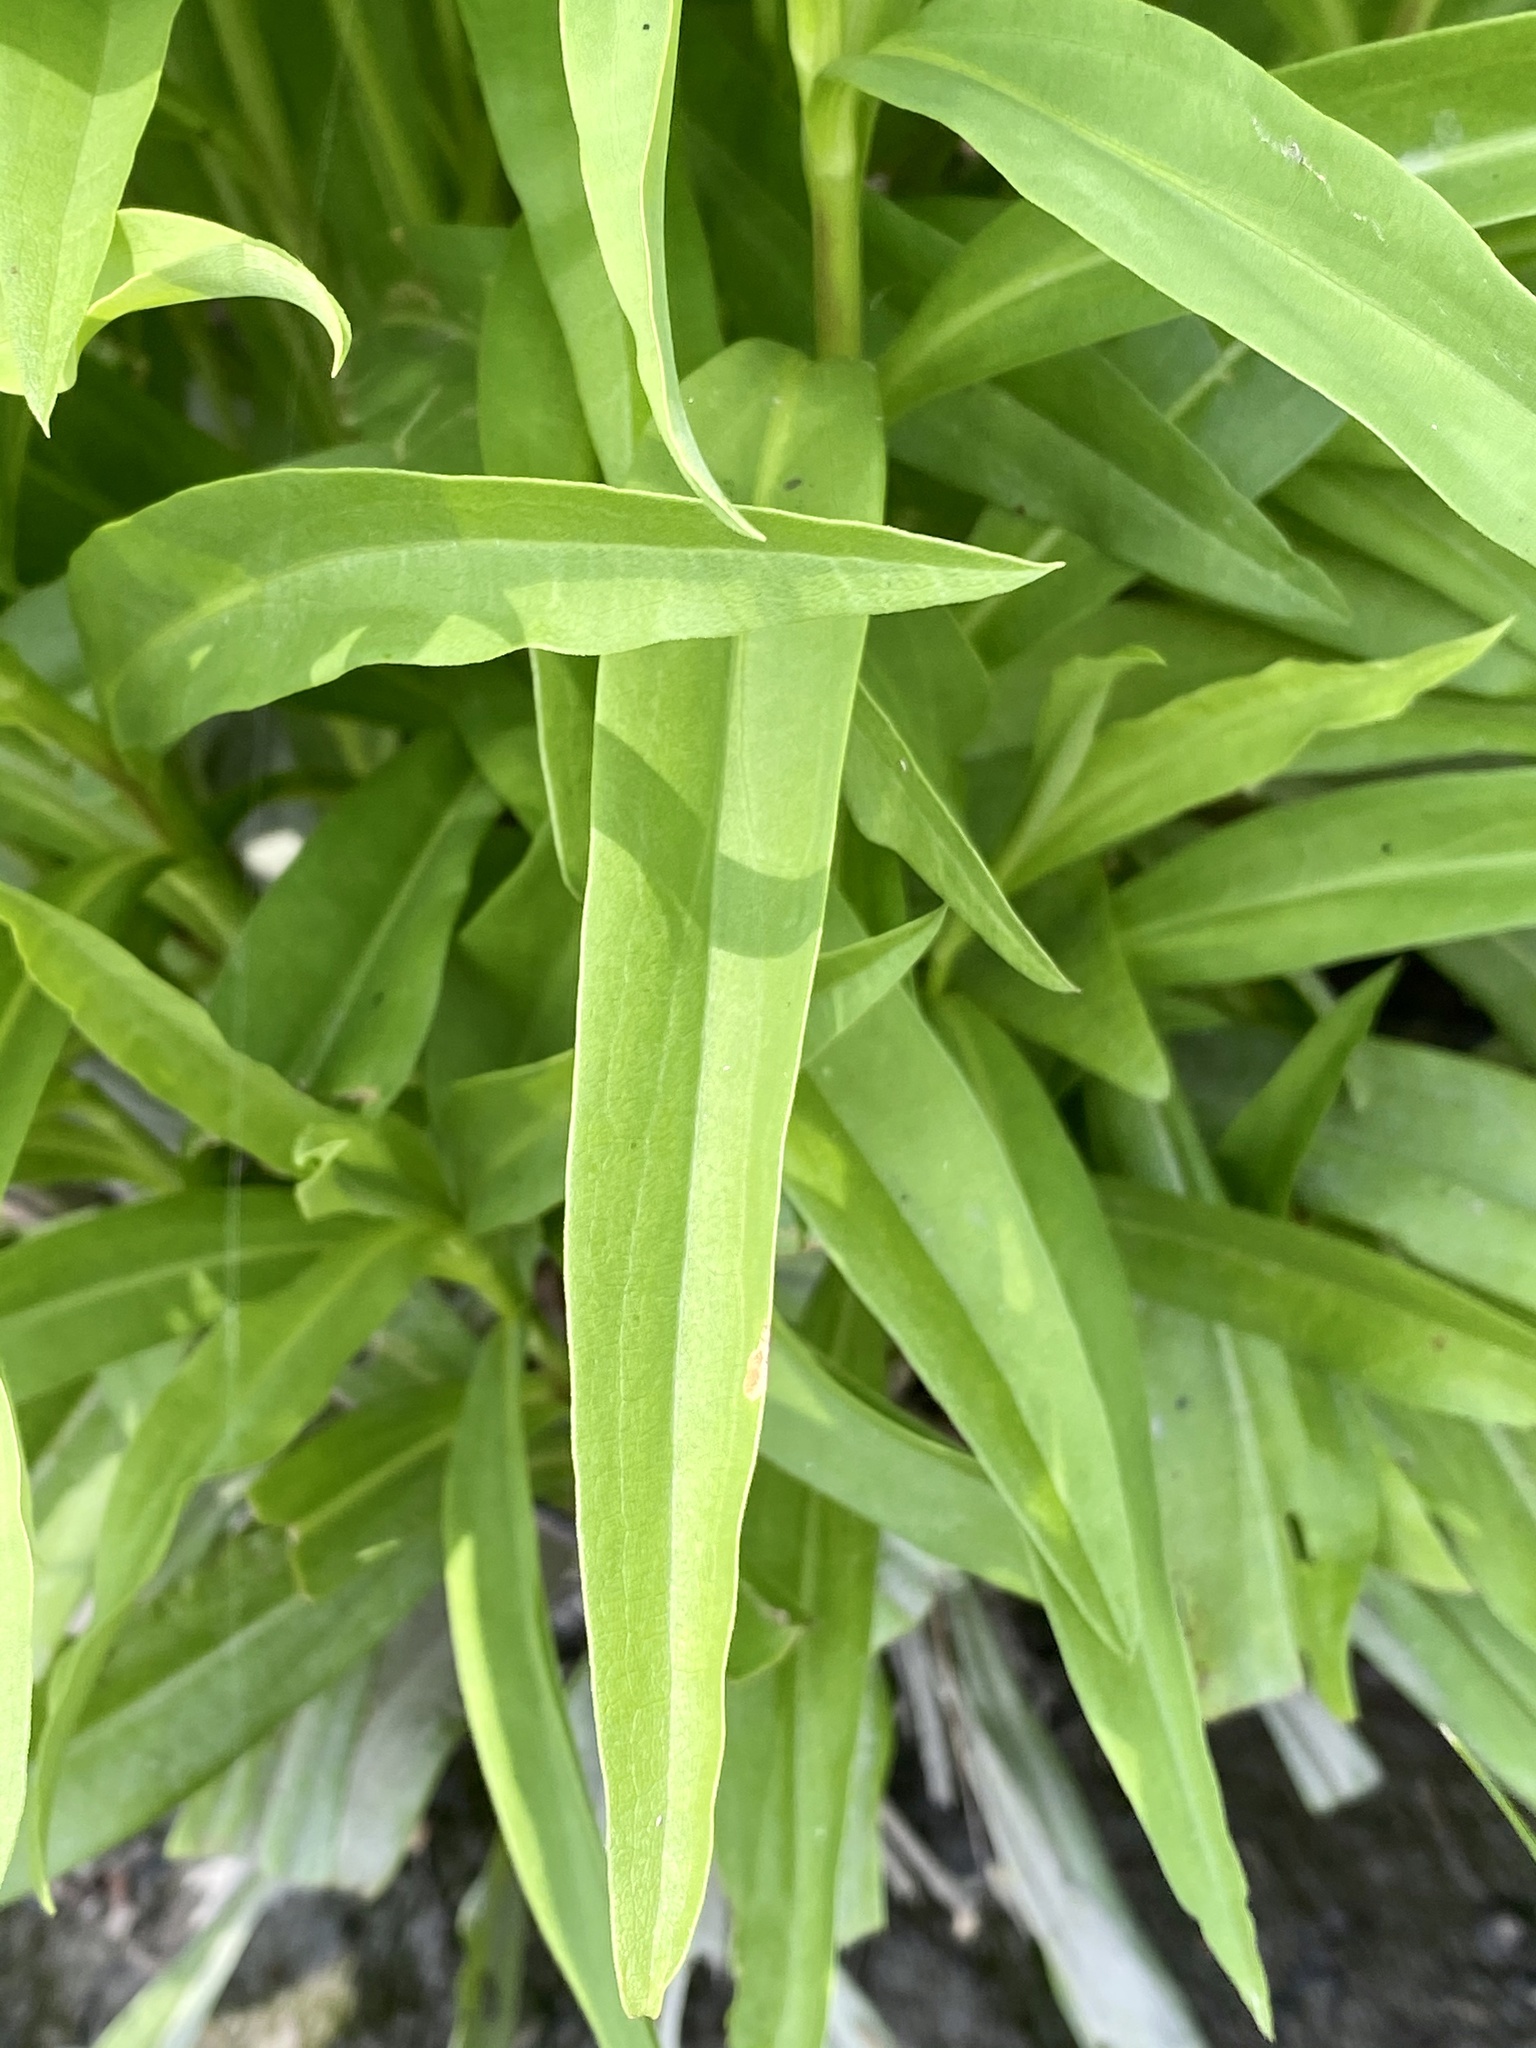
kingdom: Plantae
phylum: Tracheophyta
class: Magnoliopsida
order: Asterales
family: Asteraceae
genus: Solidago
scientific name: Solidago sempervirens
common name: Salt-marsh goldenrod
